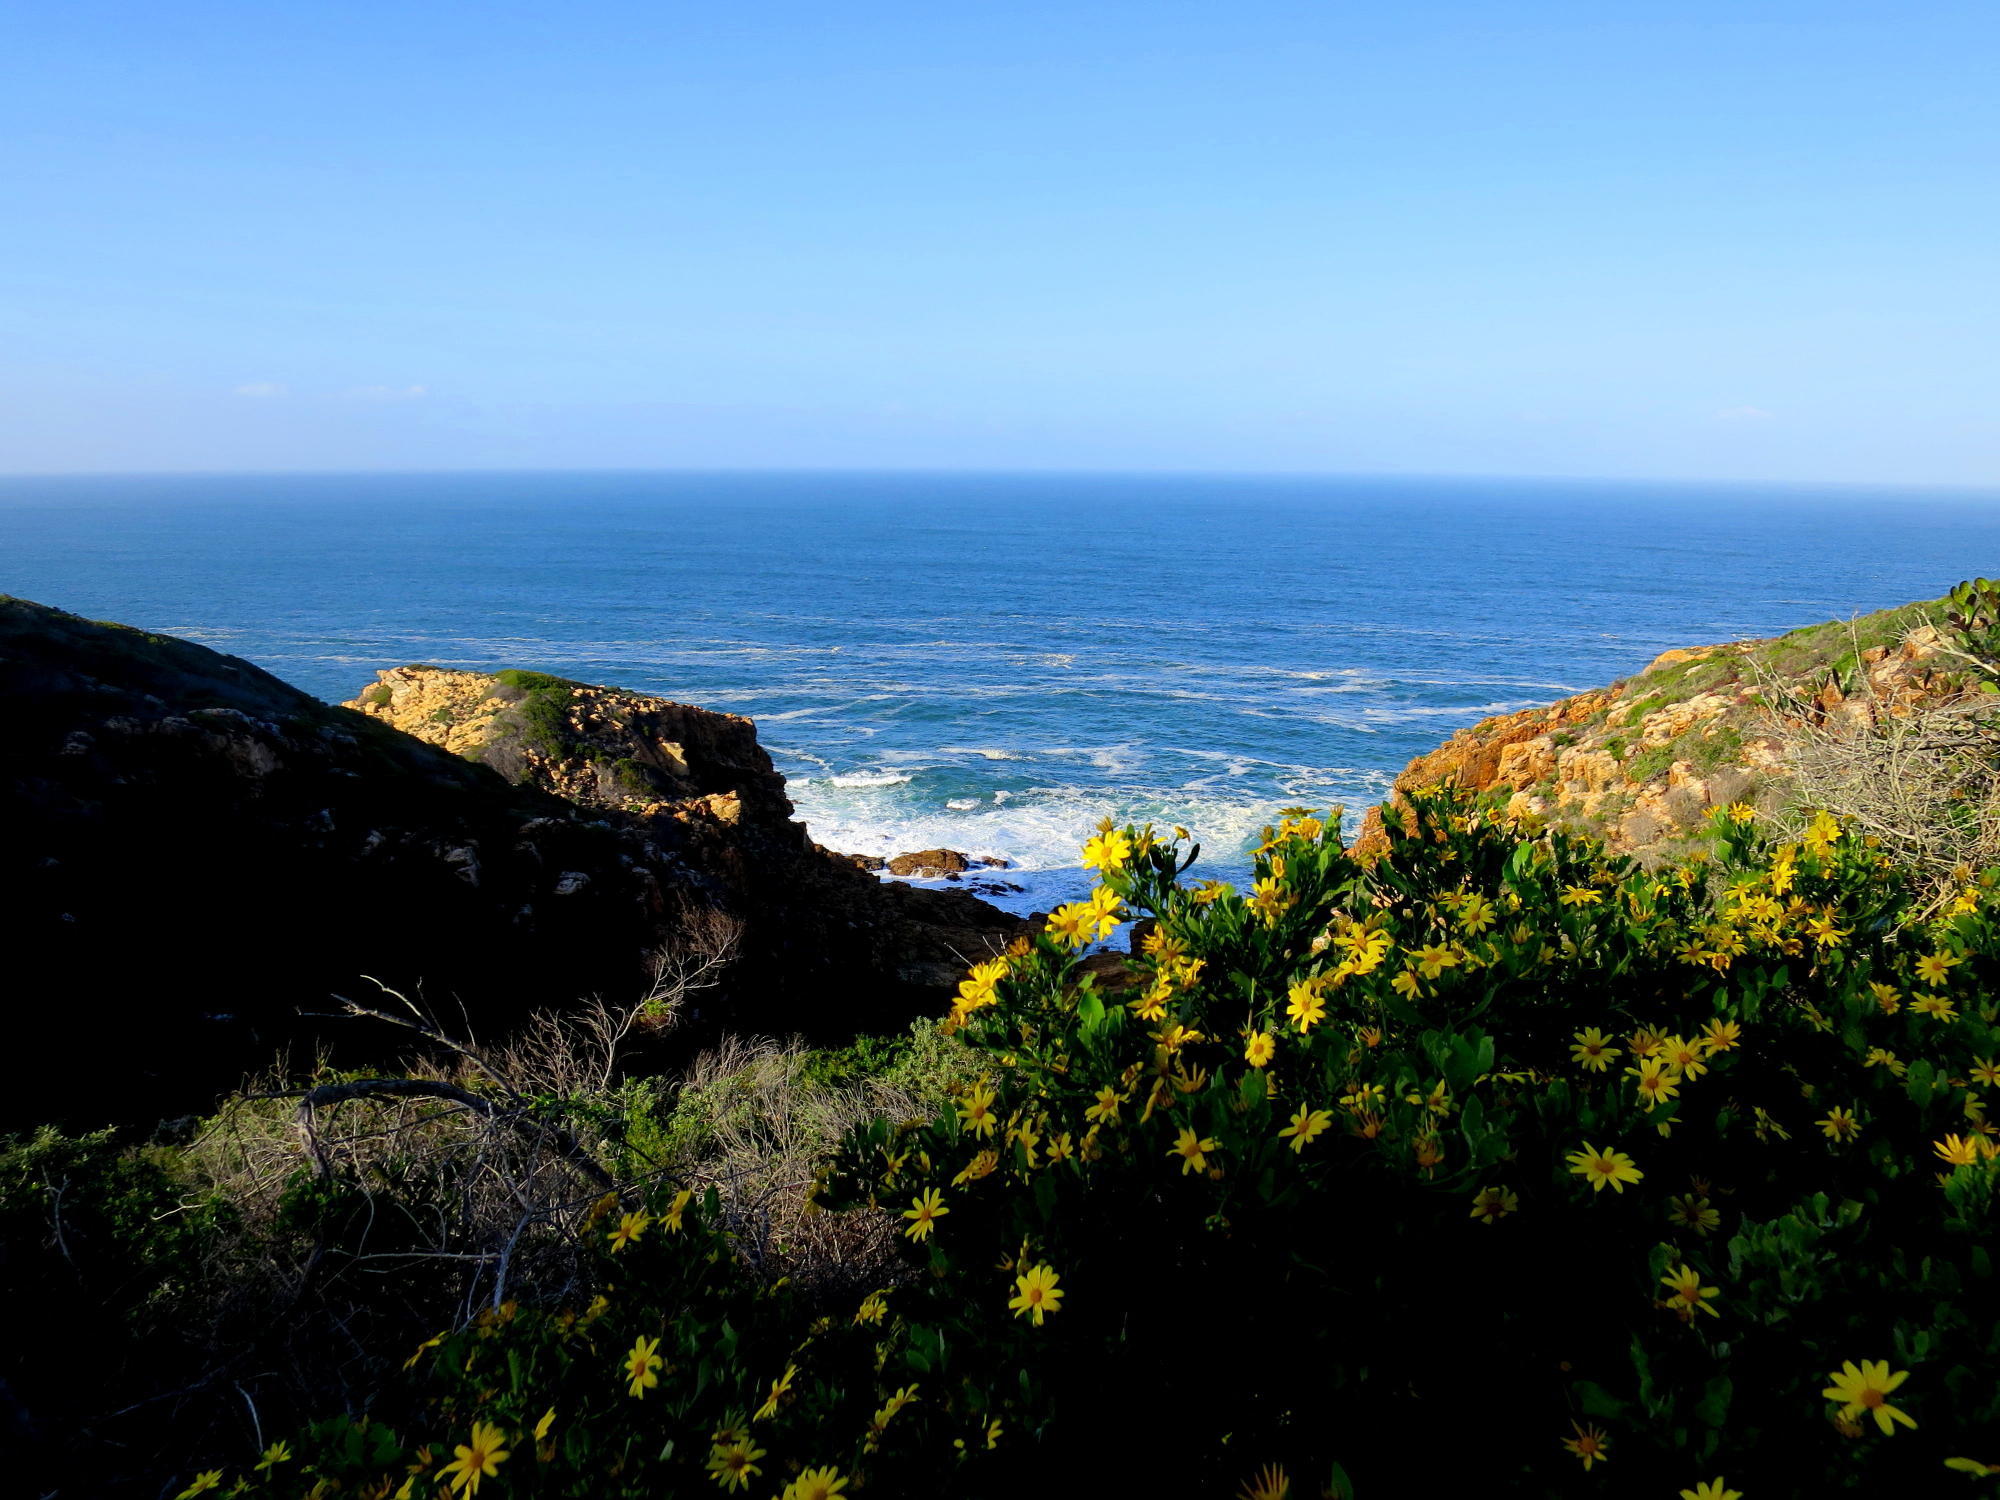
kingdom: Plantae
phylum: Tracheophyta
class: Magnoliopsida
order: Asterales
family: Asteraceae
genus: Osteospermum
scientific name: Osteospermum moniliferum
